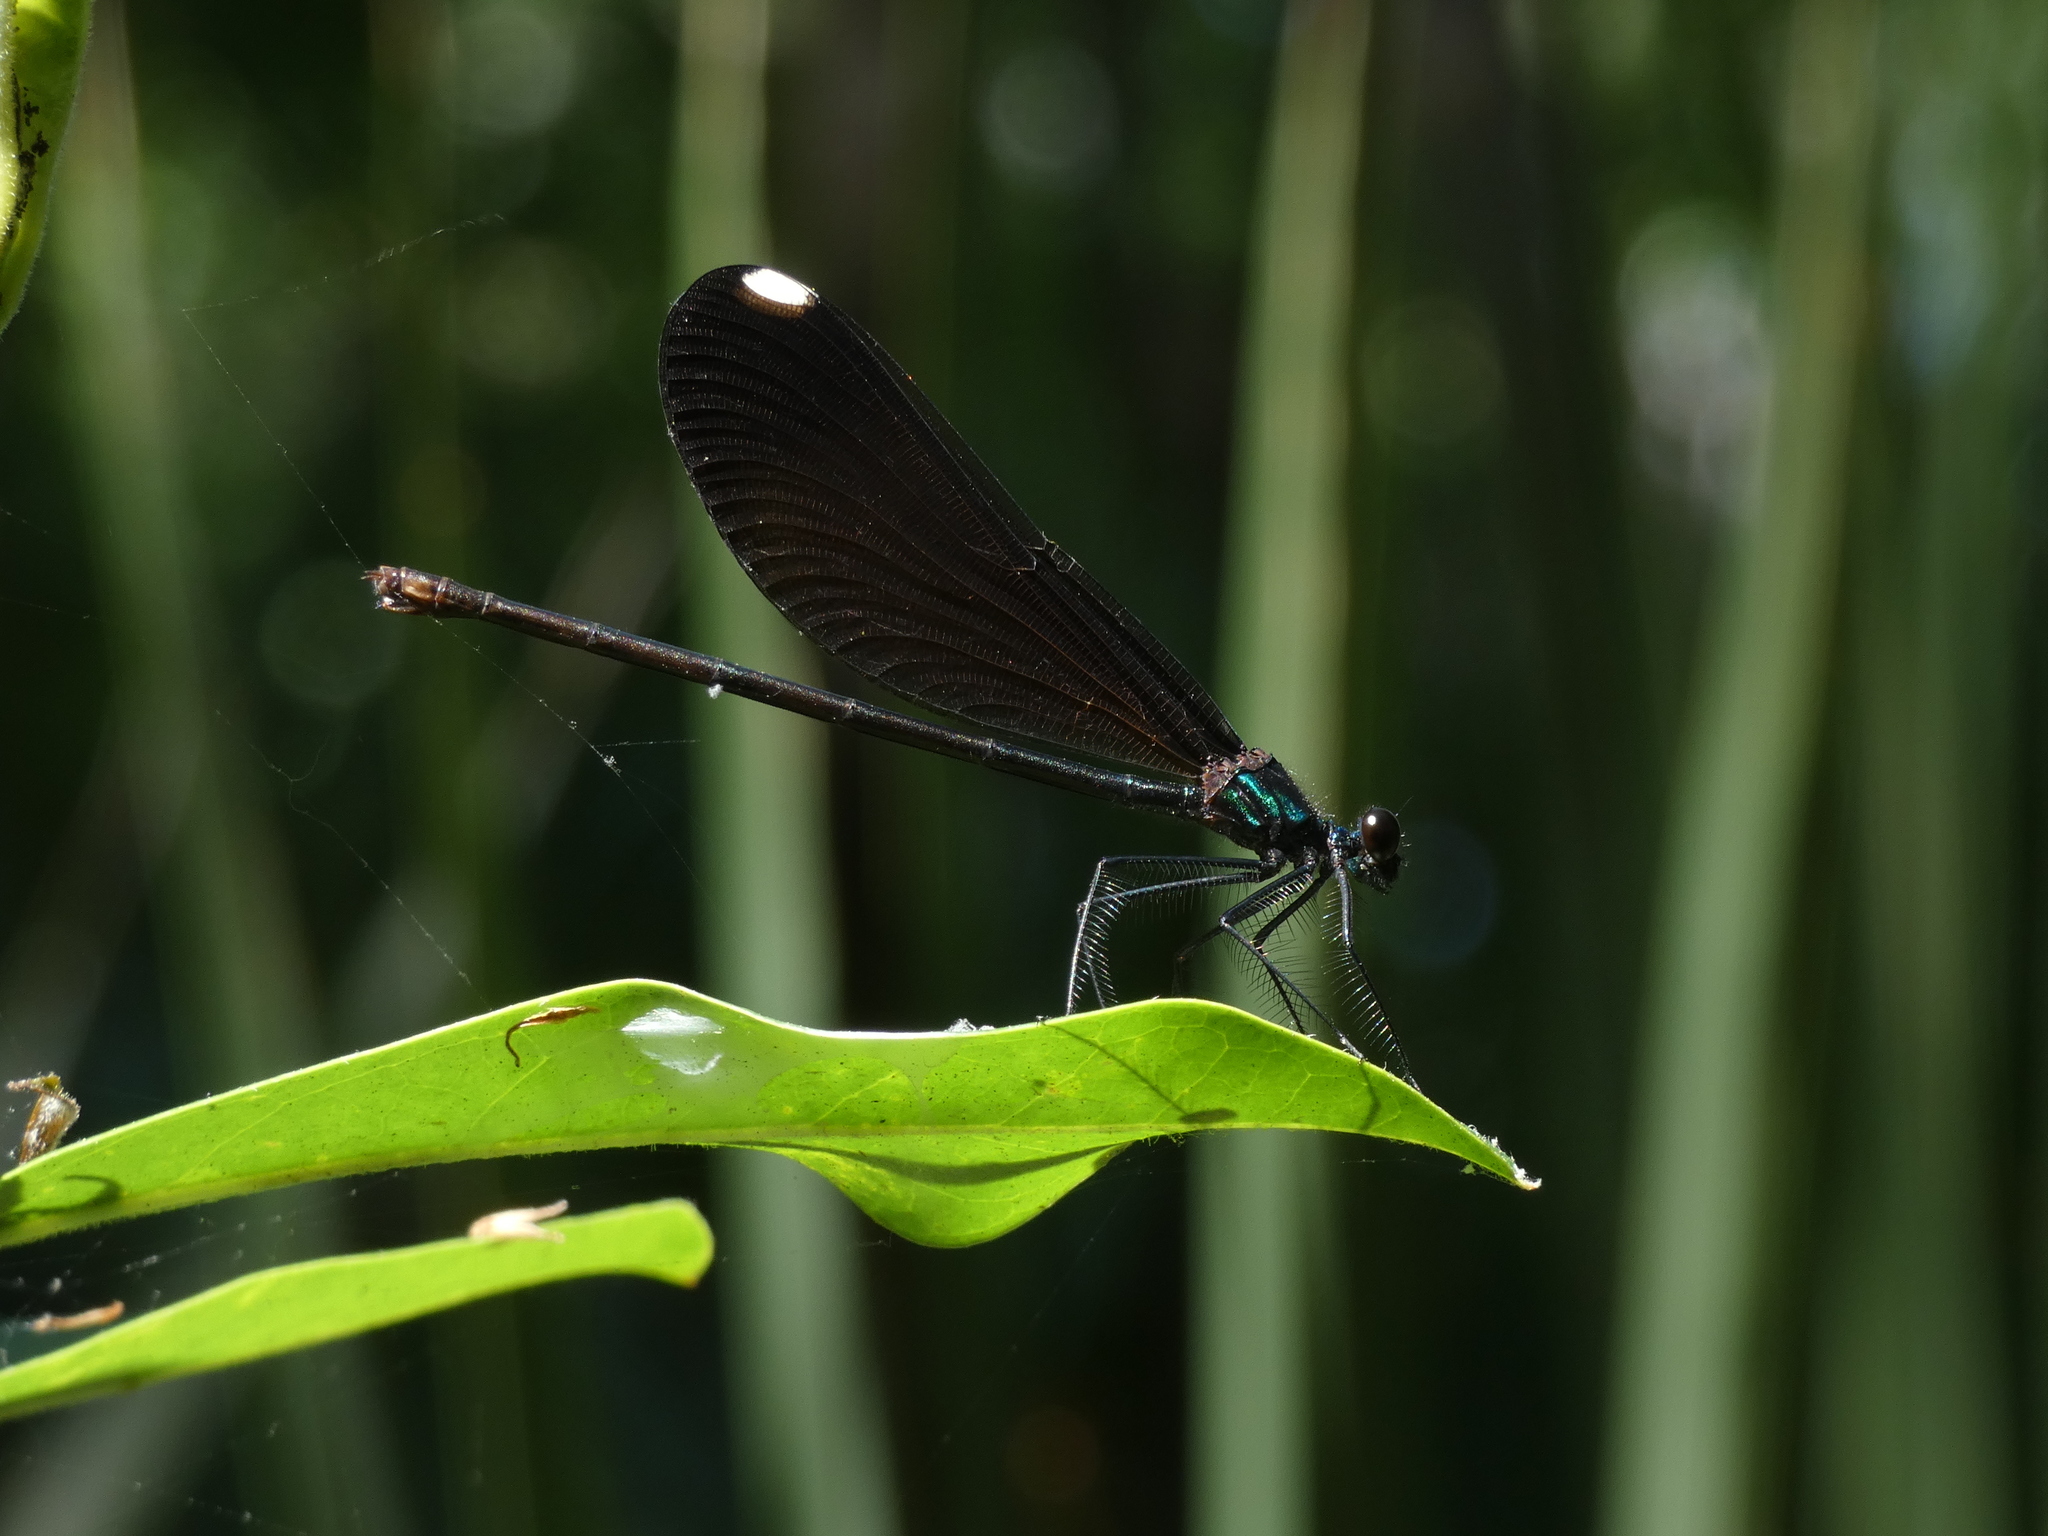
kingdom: Animalia
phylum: Arthropoda
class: Insecta
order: Odonata
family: Calopterygidae
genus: Calopteryx
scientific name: Calopteryx maculata
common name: Ebony jewelwing
